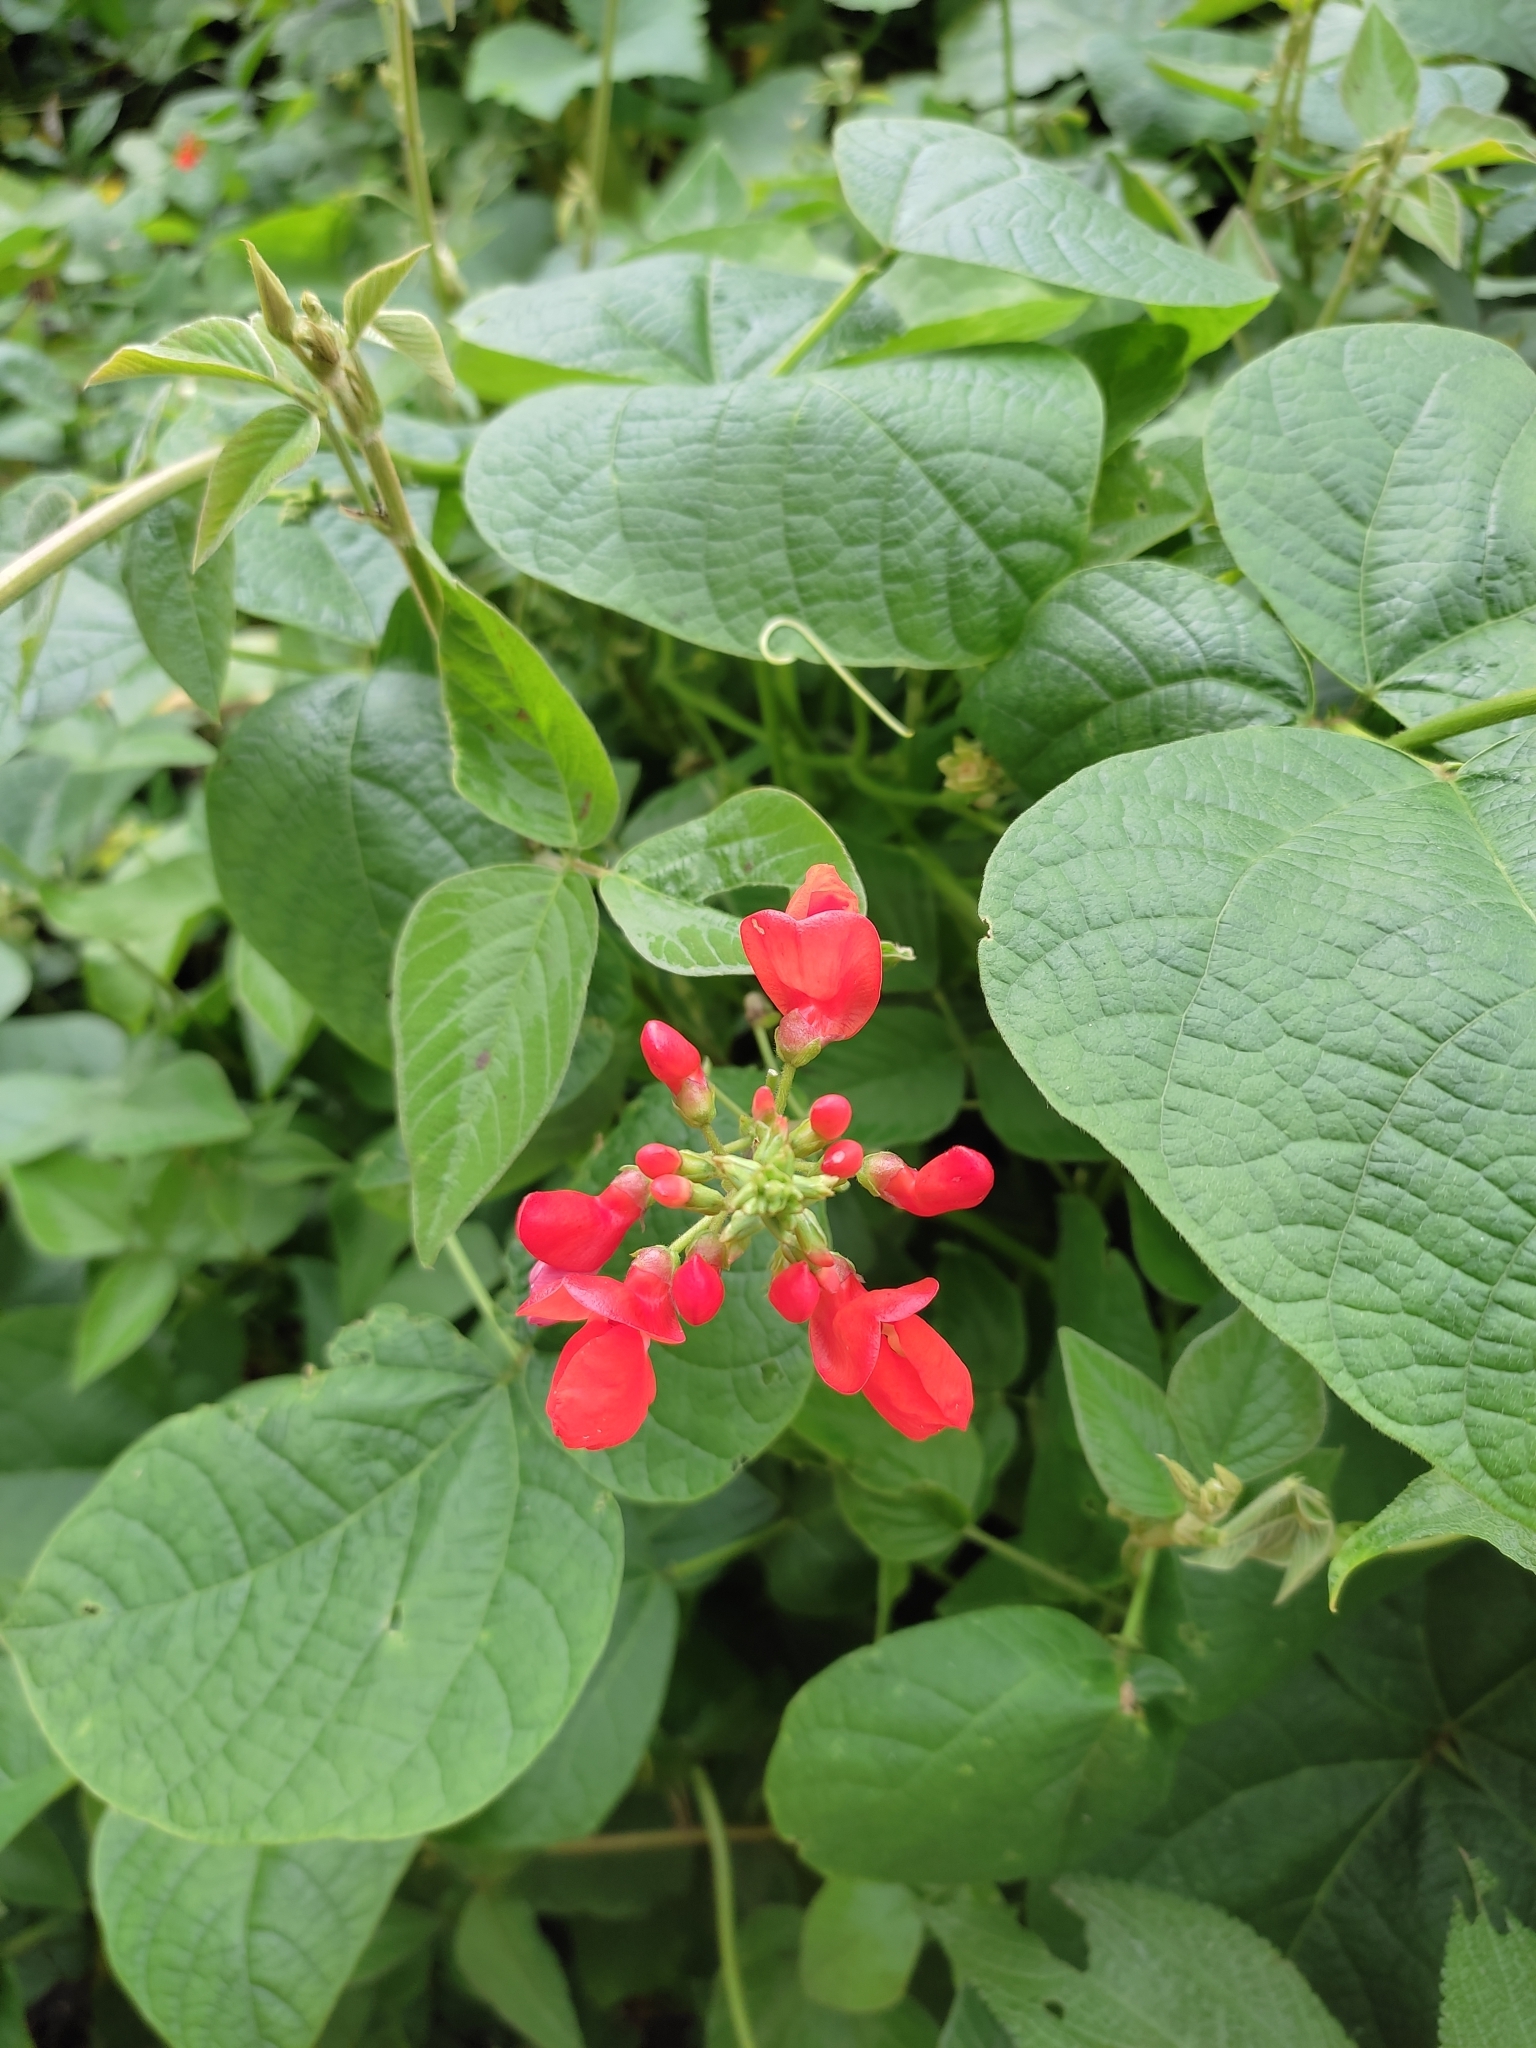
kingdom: Plantae
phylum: Tracheophyta
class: Magnoliopsida
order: Fabales
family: Fabaceae
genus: Phaseolus
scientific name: Phaseolus coccineus
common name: Runner bean
